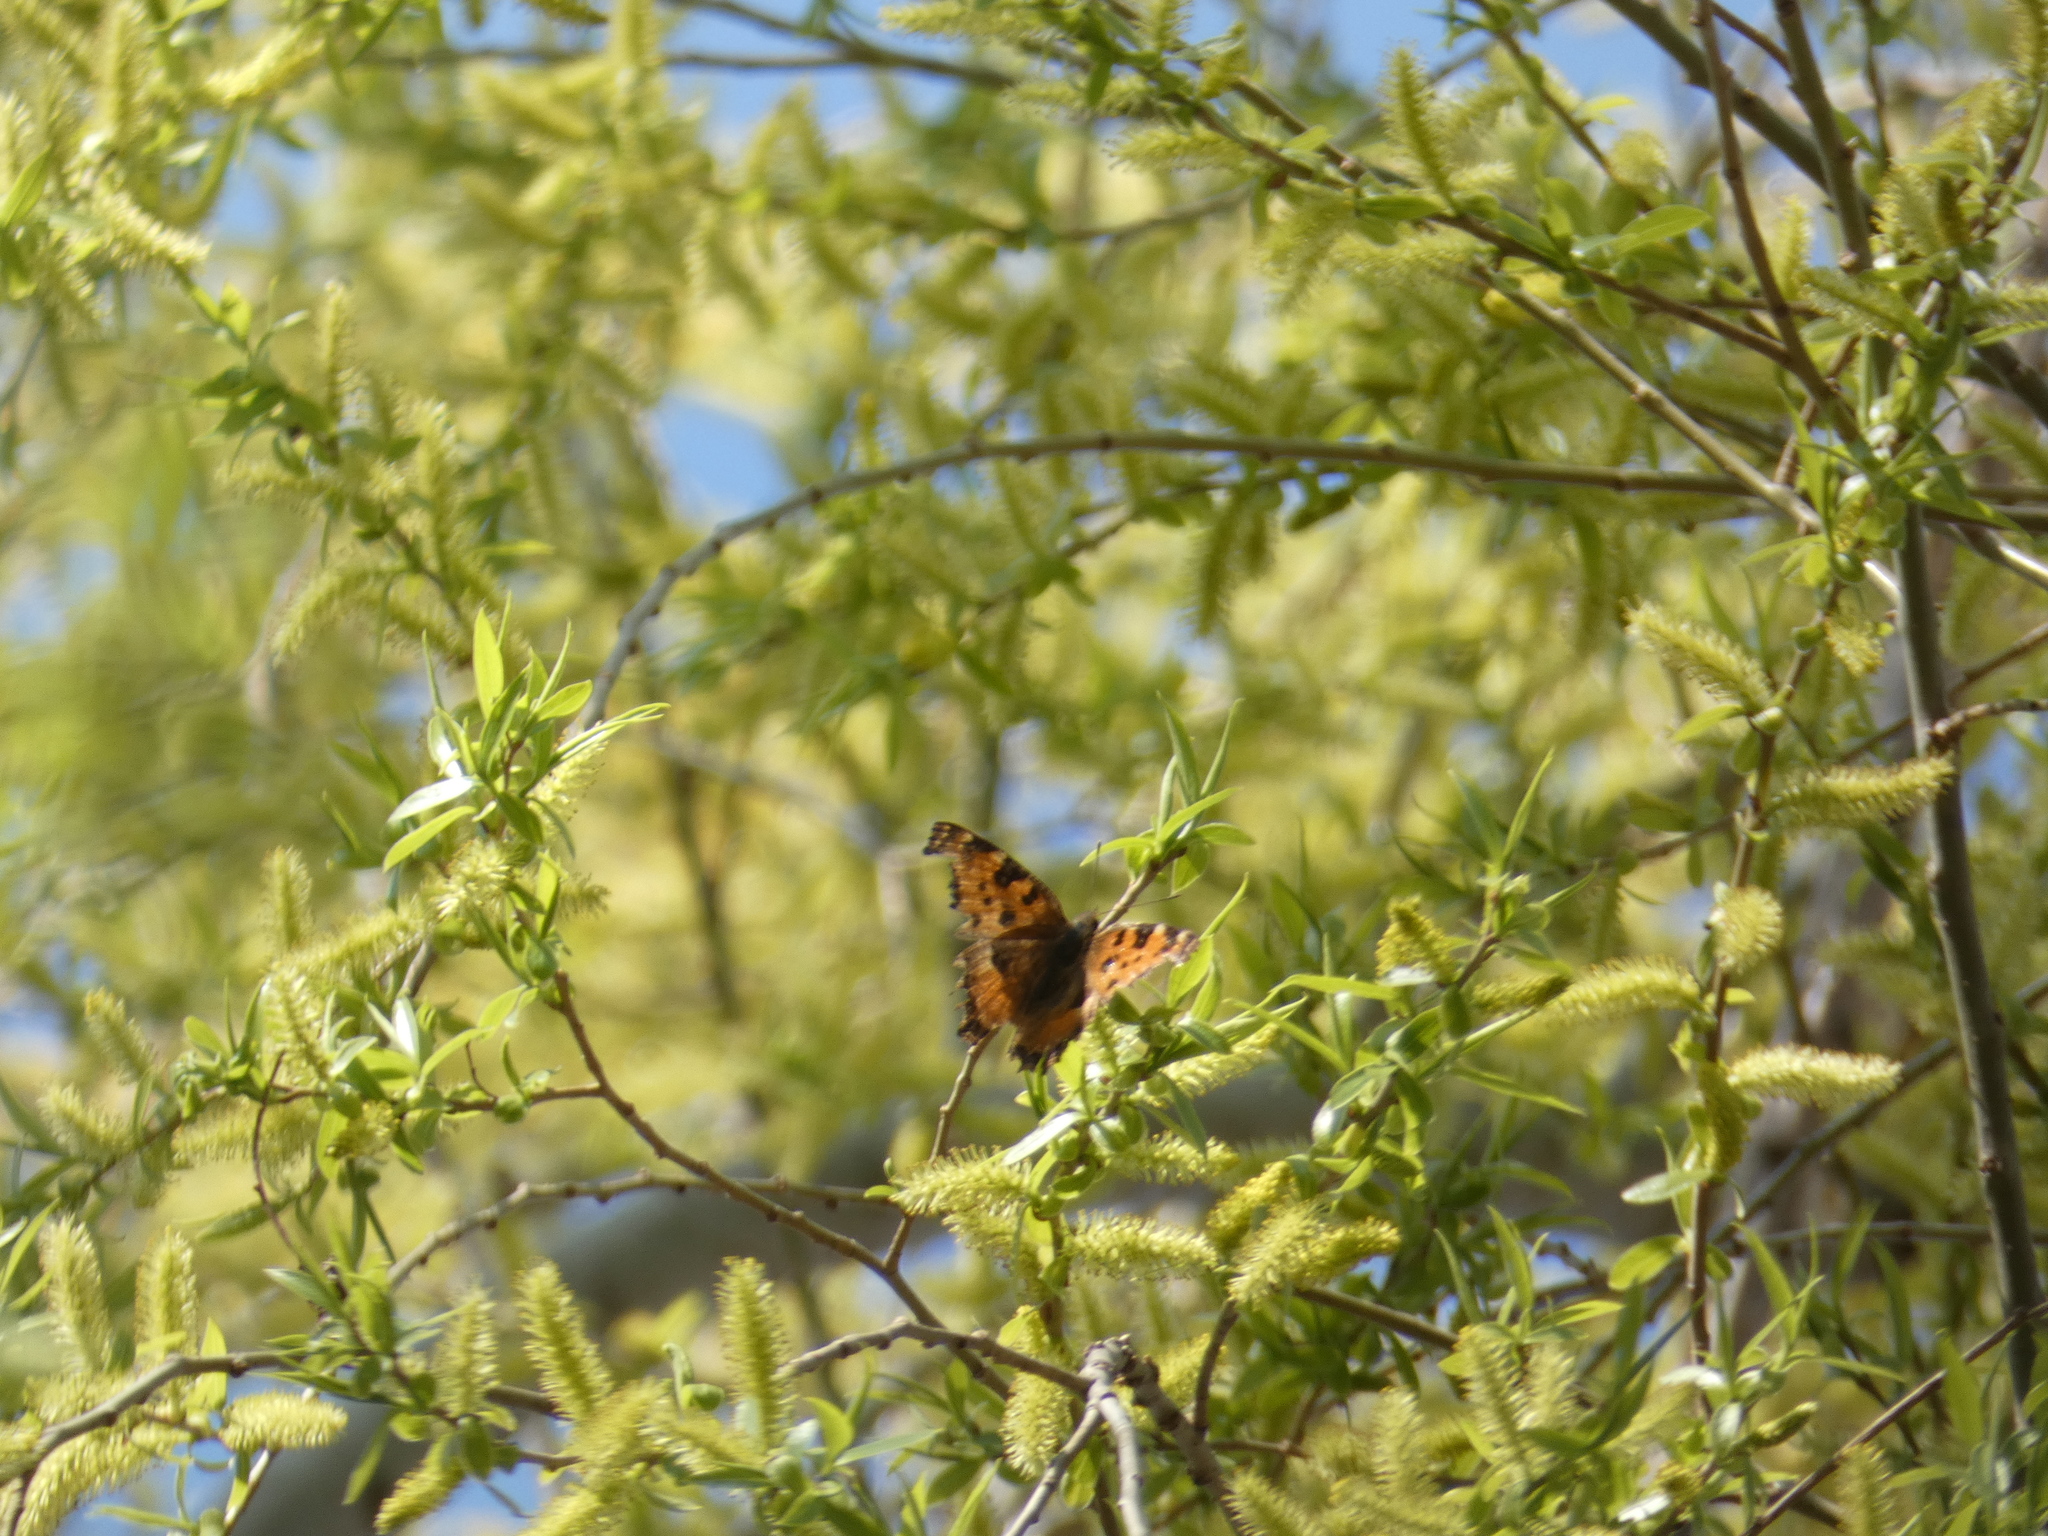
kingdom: Animalia
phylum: Arthropoda
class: Insecta
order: Lepidoptera
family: Nymphalidae
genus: Nymphalis
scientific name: Nymphalis polychloros
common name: Large tortoiseshell
